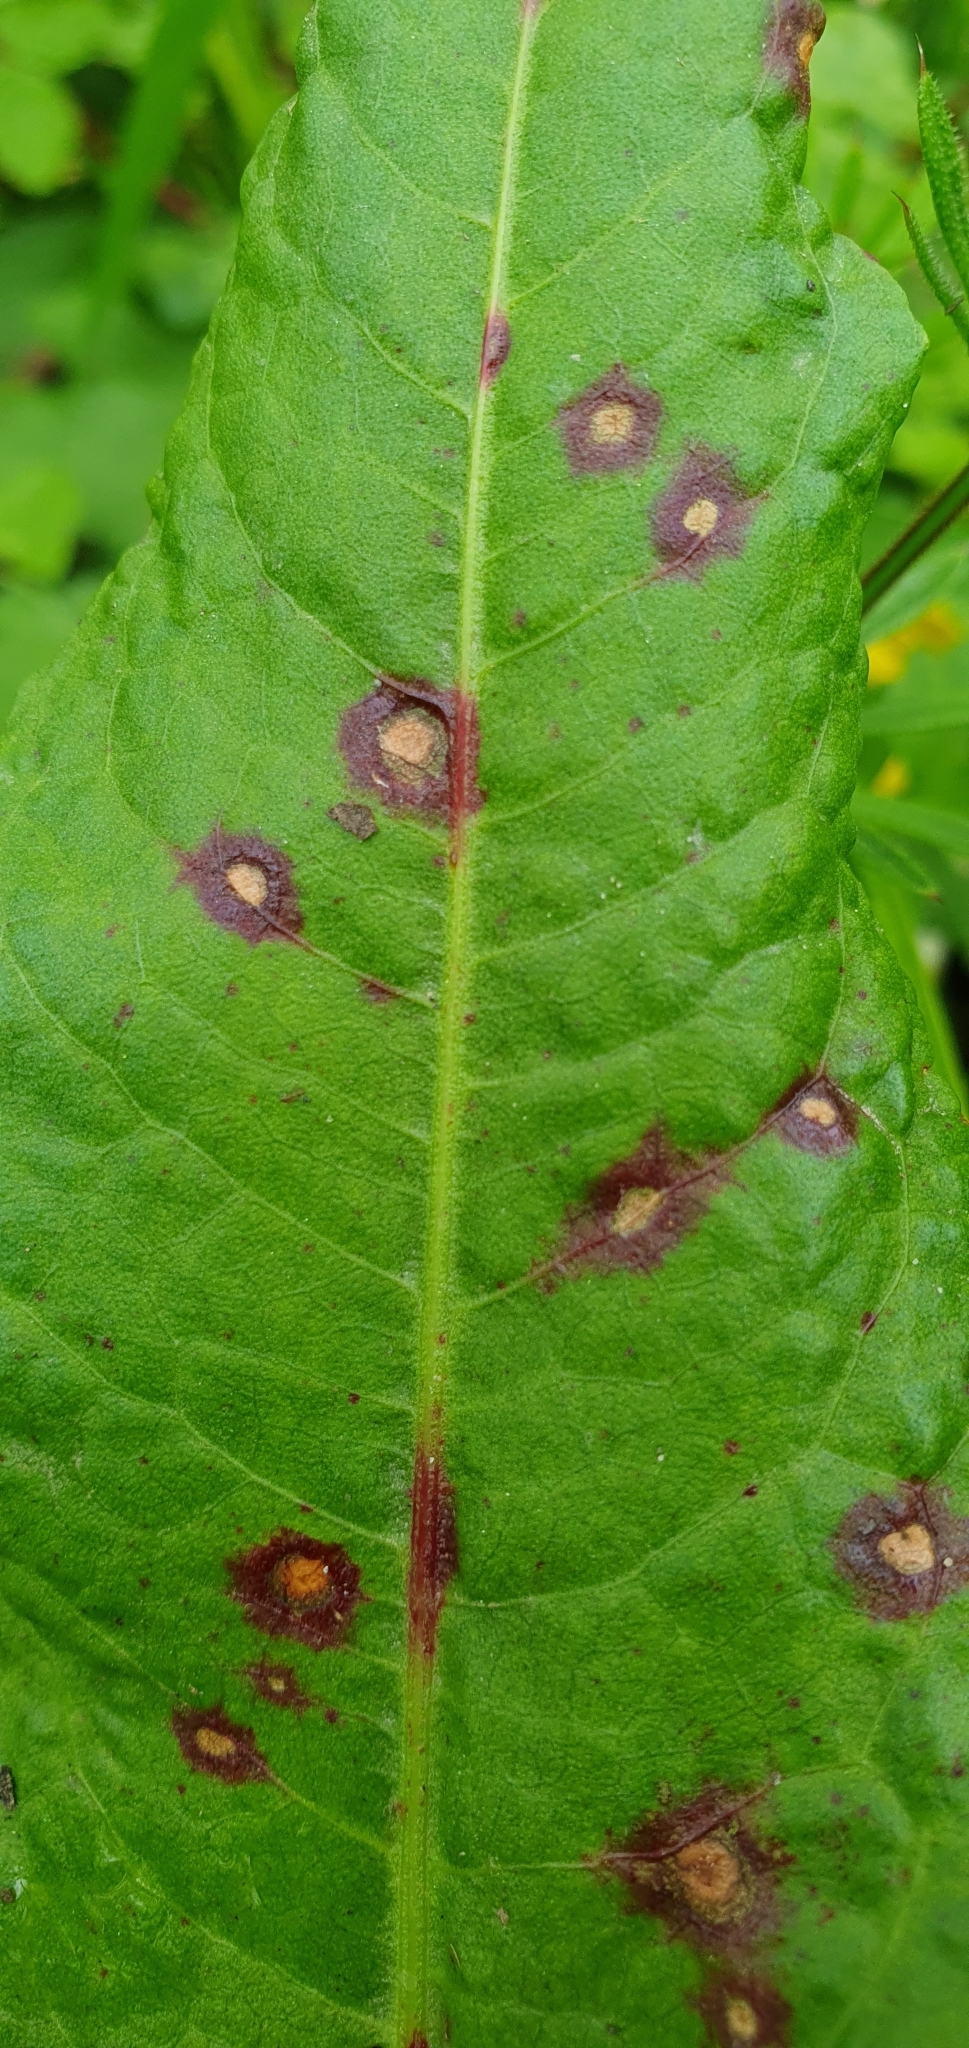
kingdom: Fungi
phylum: Ascomycota
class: Dothideomycetes
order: Mycosphaerellales
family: Mycosphaerellaceae
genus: Ramularia
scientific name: Ramularia rubella
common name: Red dock spot
